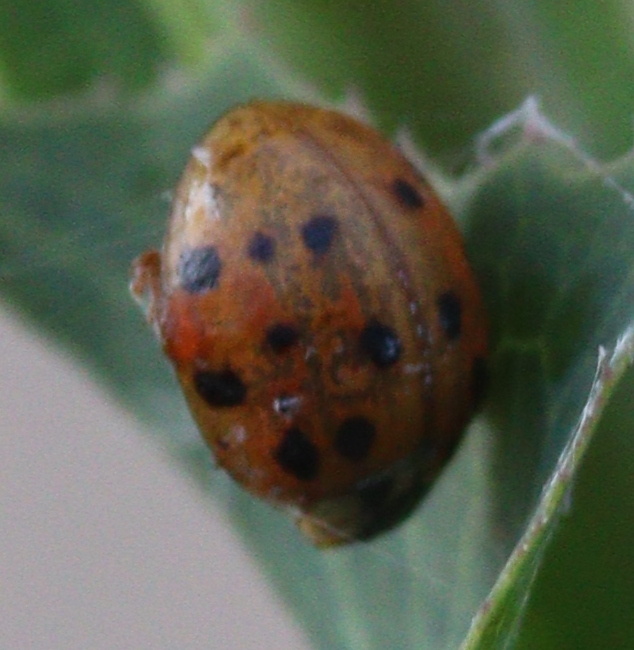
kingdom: Animalia
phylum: Arthropoda
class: Insecta
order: Coleoptera
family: Coccinellidae
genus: Harmonia
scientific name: Harmonia axyridis
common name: Harlequin ladybird
